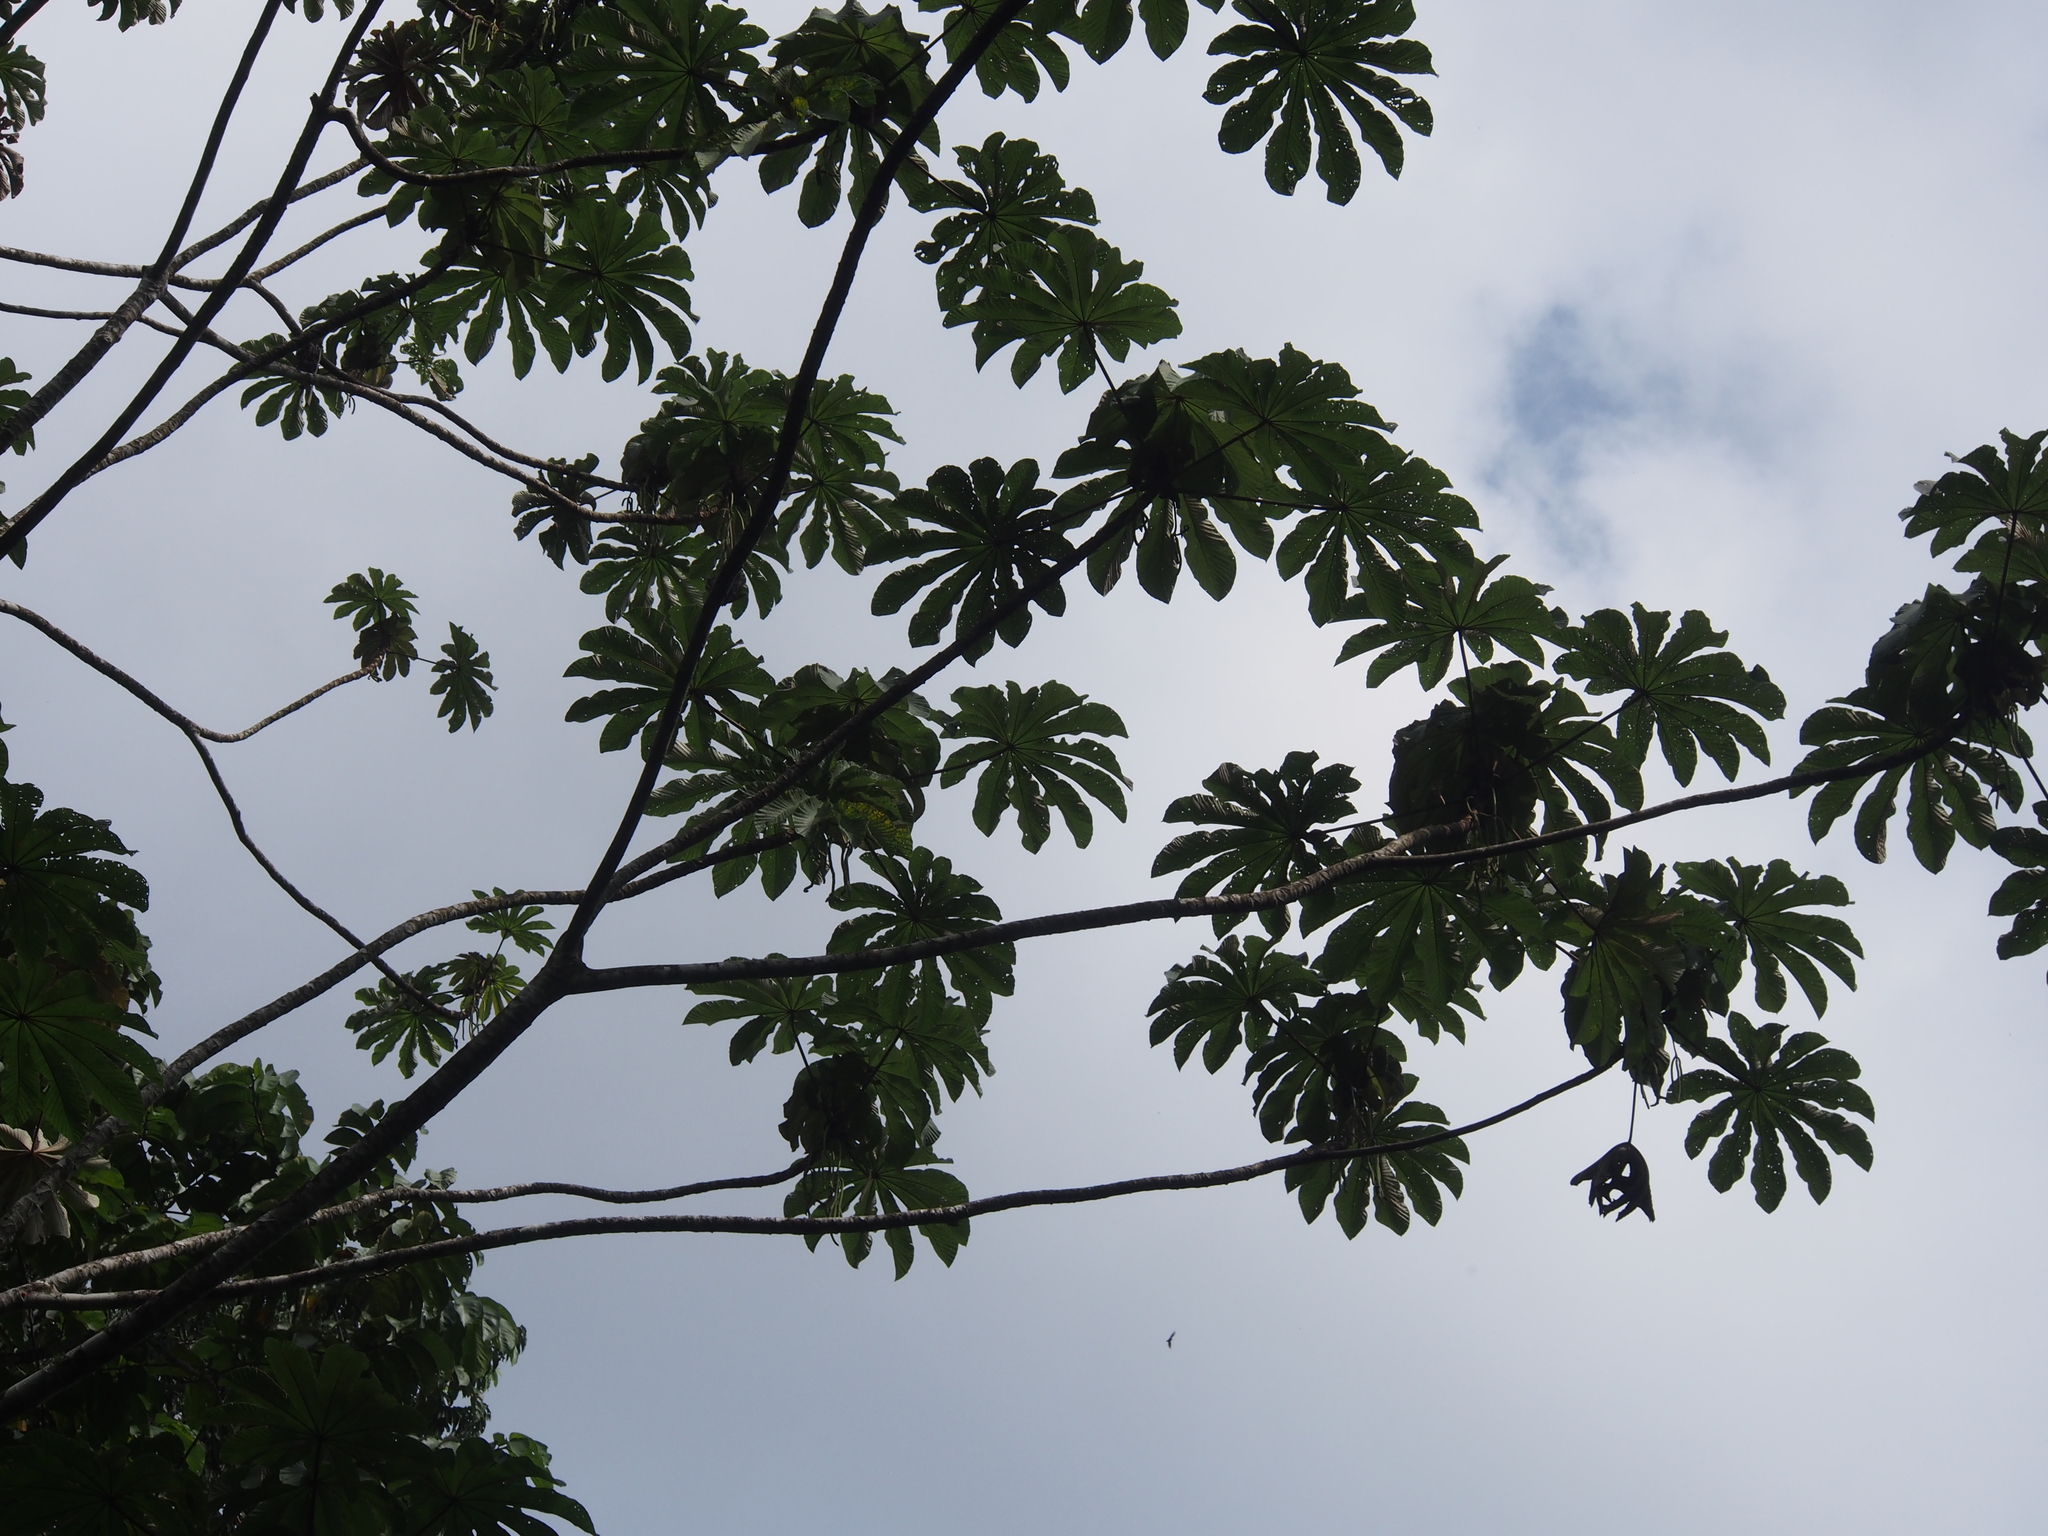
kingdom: Plantae
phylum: Tracheophyta
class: Magnoliopsida
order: Rosales
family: Urticaceae
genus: Cecropia
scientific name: Cecropia obtusifolia
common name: Trumpet tree
